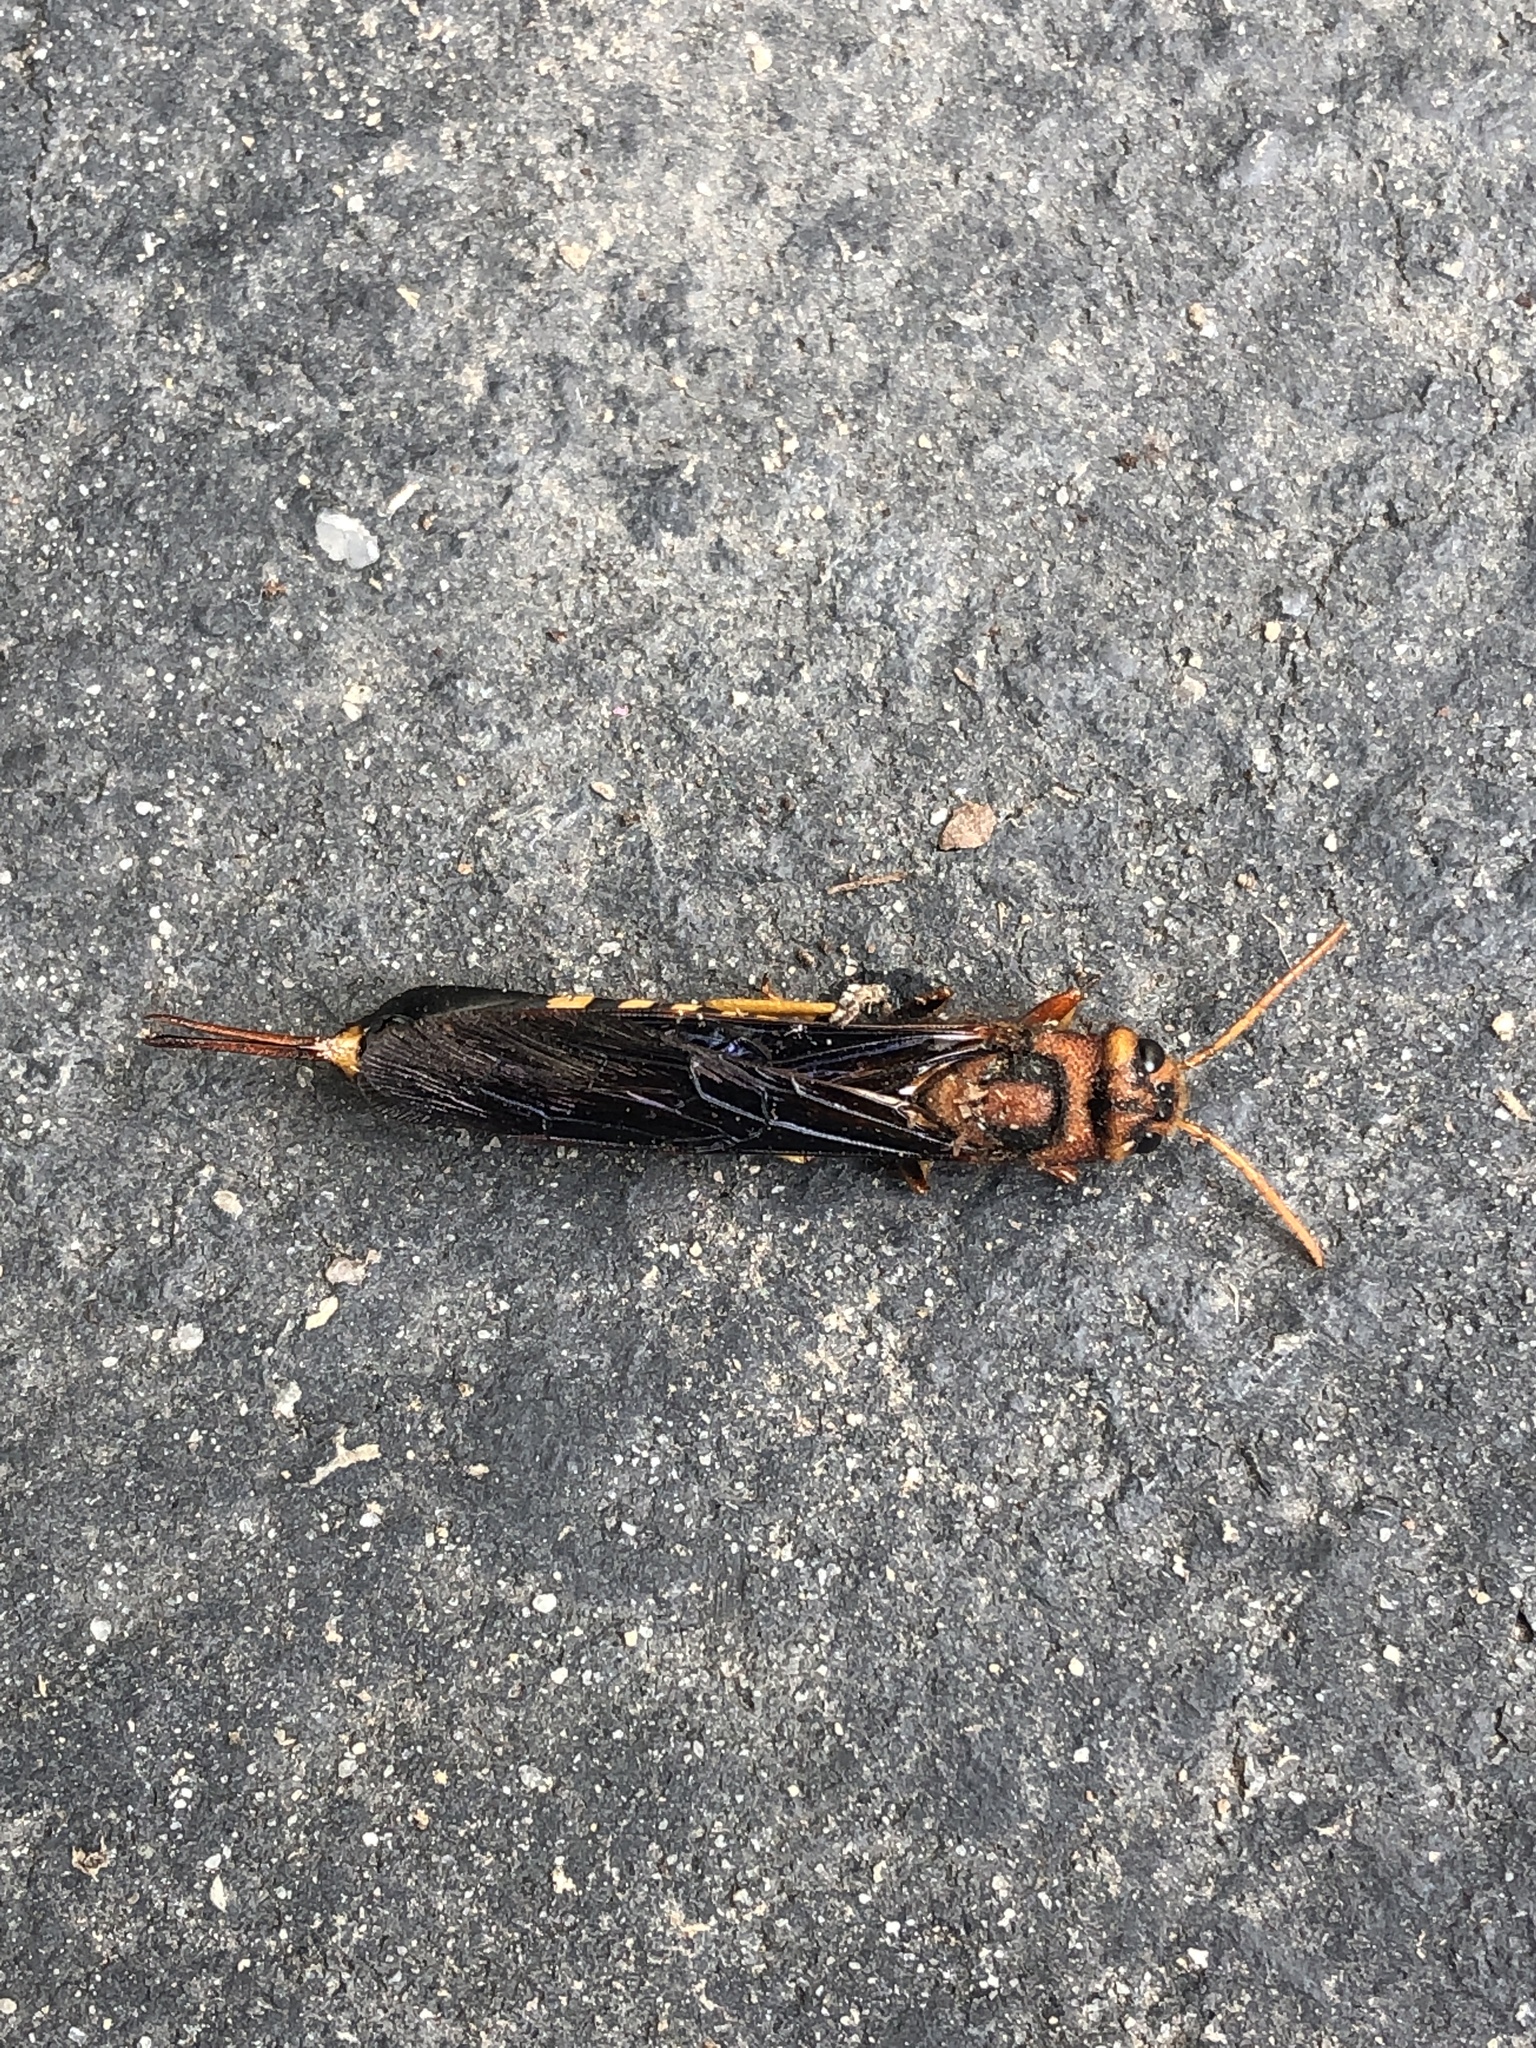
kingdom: Animalia
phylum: Arthropoda
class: Insecta
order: Hymenoptera
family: Siricidae
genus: Tremex
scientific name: Tremex columba
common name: Wasp
